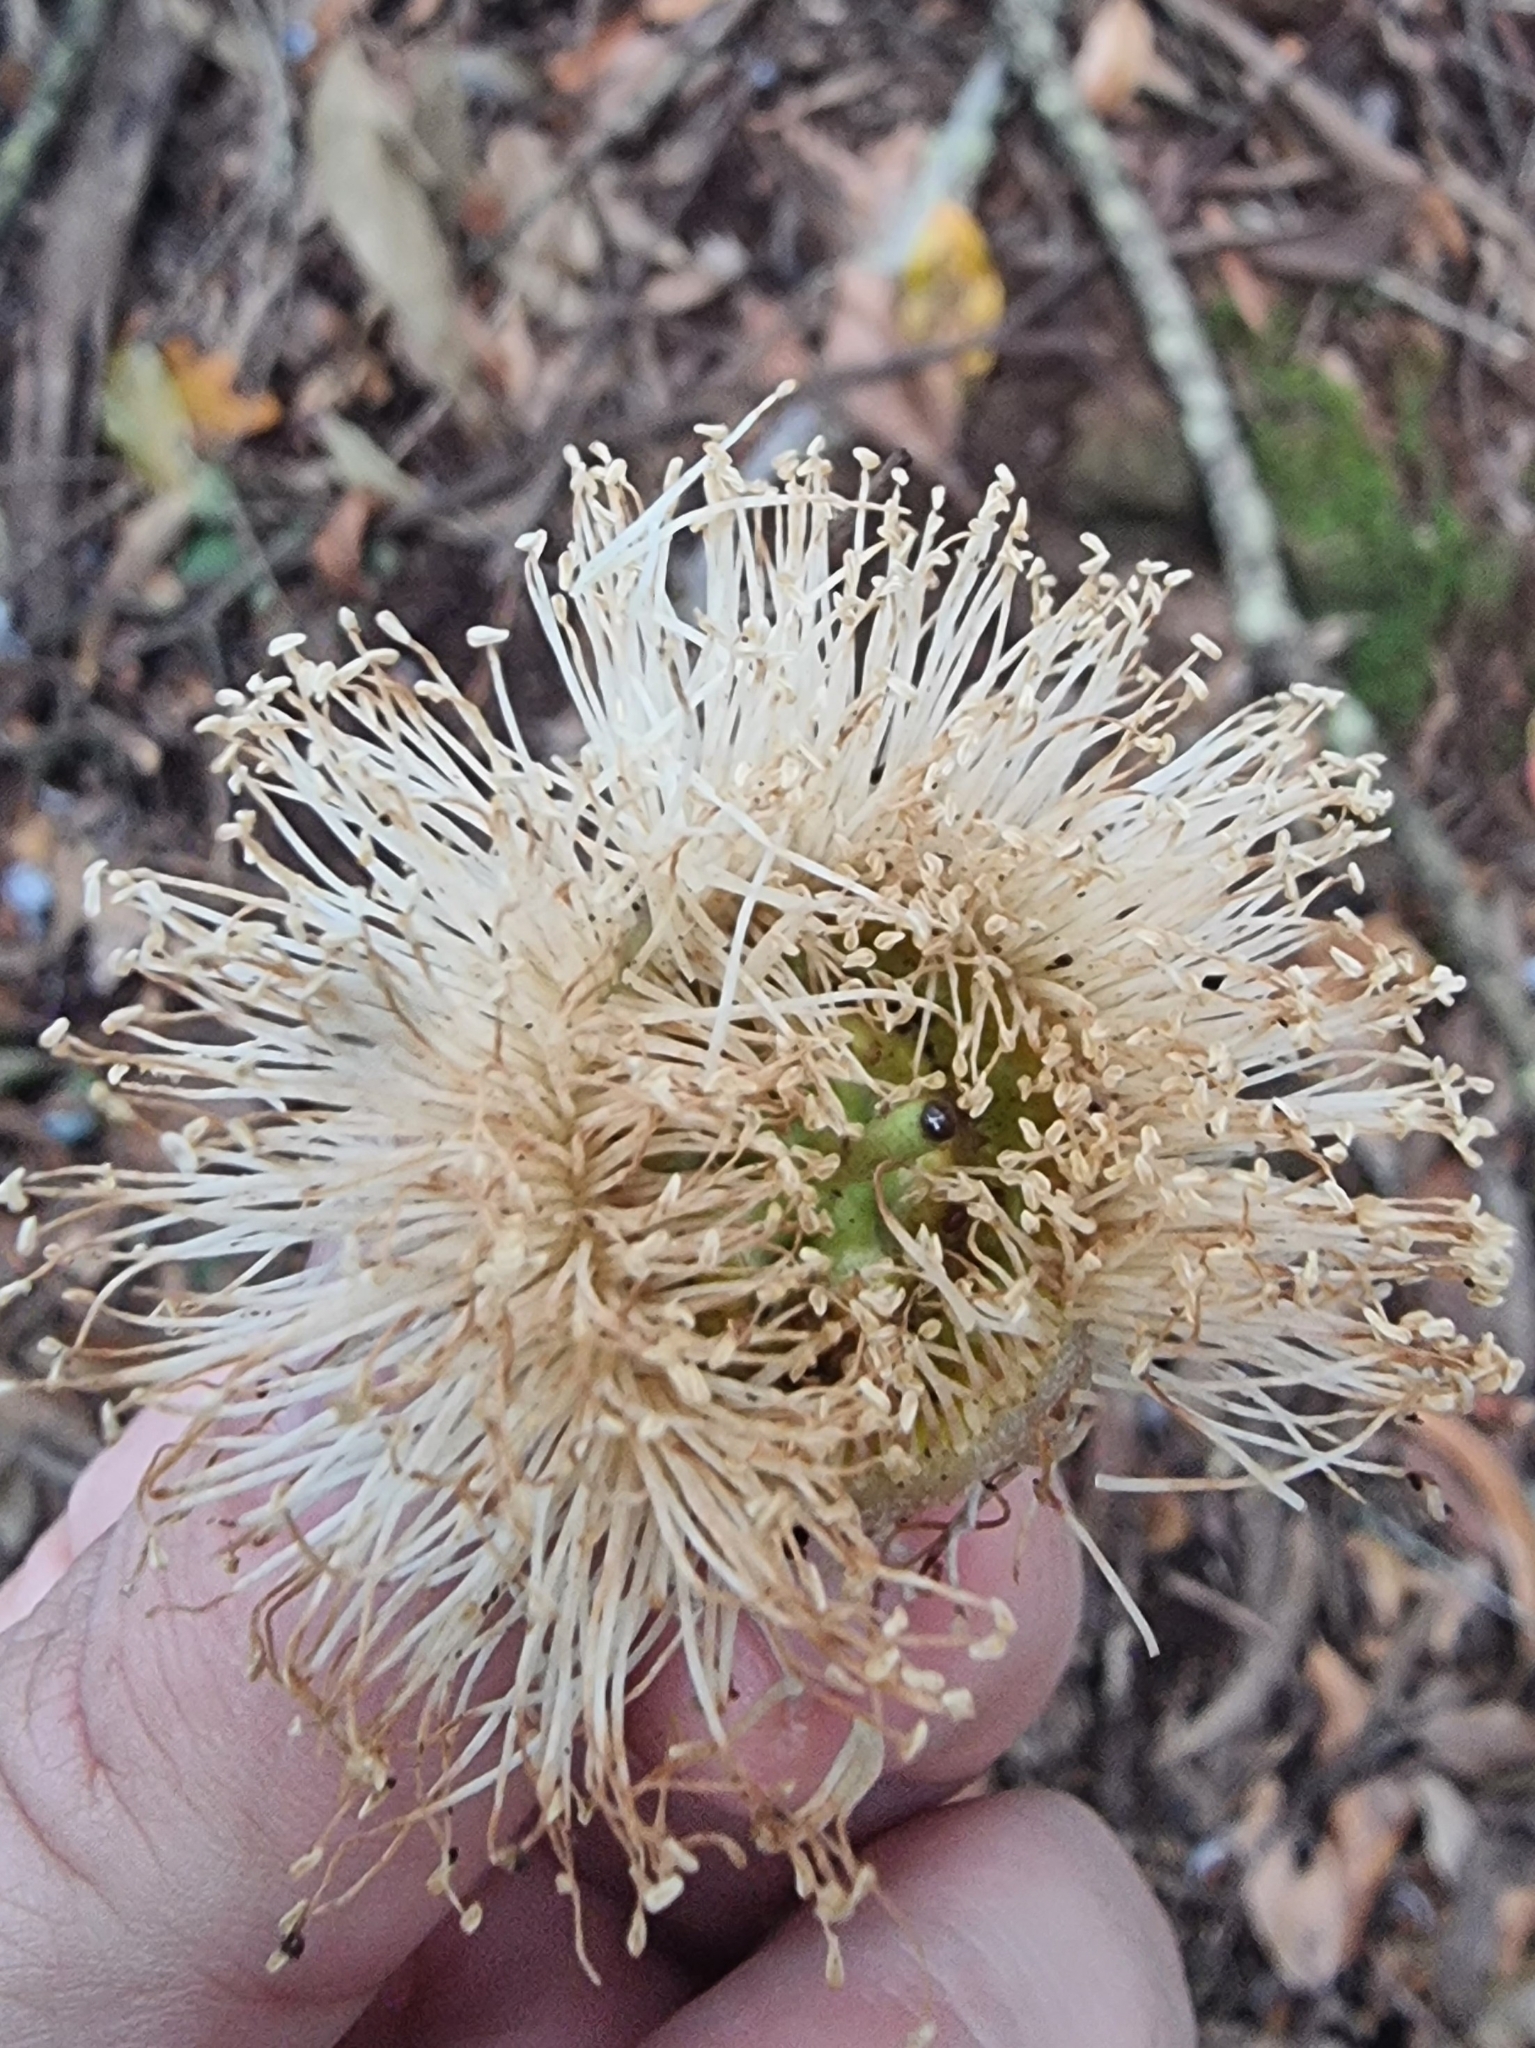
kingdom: Plantae
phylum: Tracheophyta
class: Magnoliopsida
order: Myrtales
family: Myrtaceae
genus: Eucalyptus
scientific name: Eucalyptus globulus
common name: Southern blue-gum
